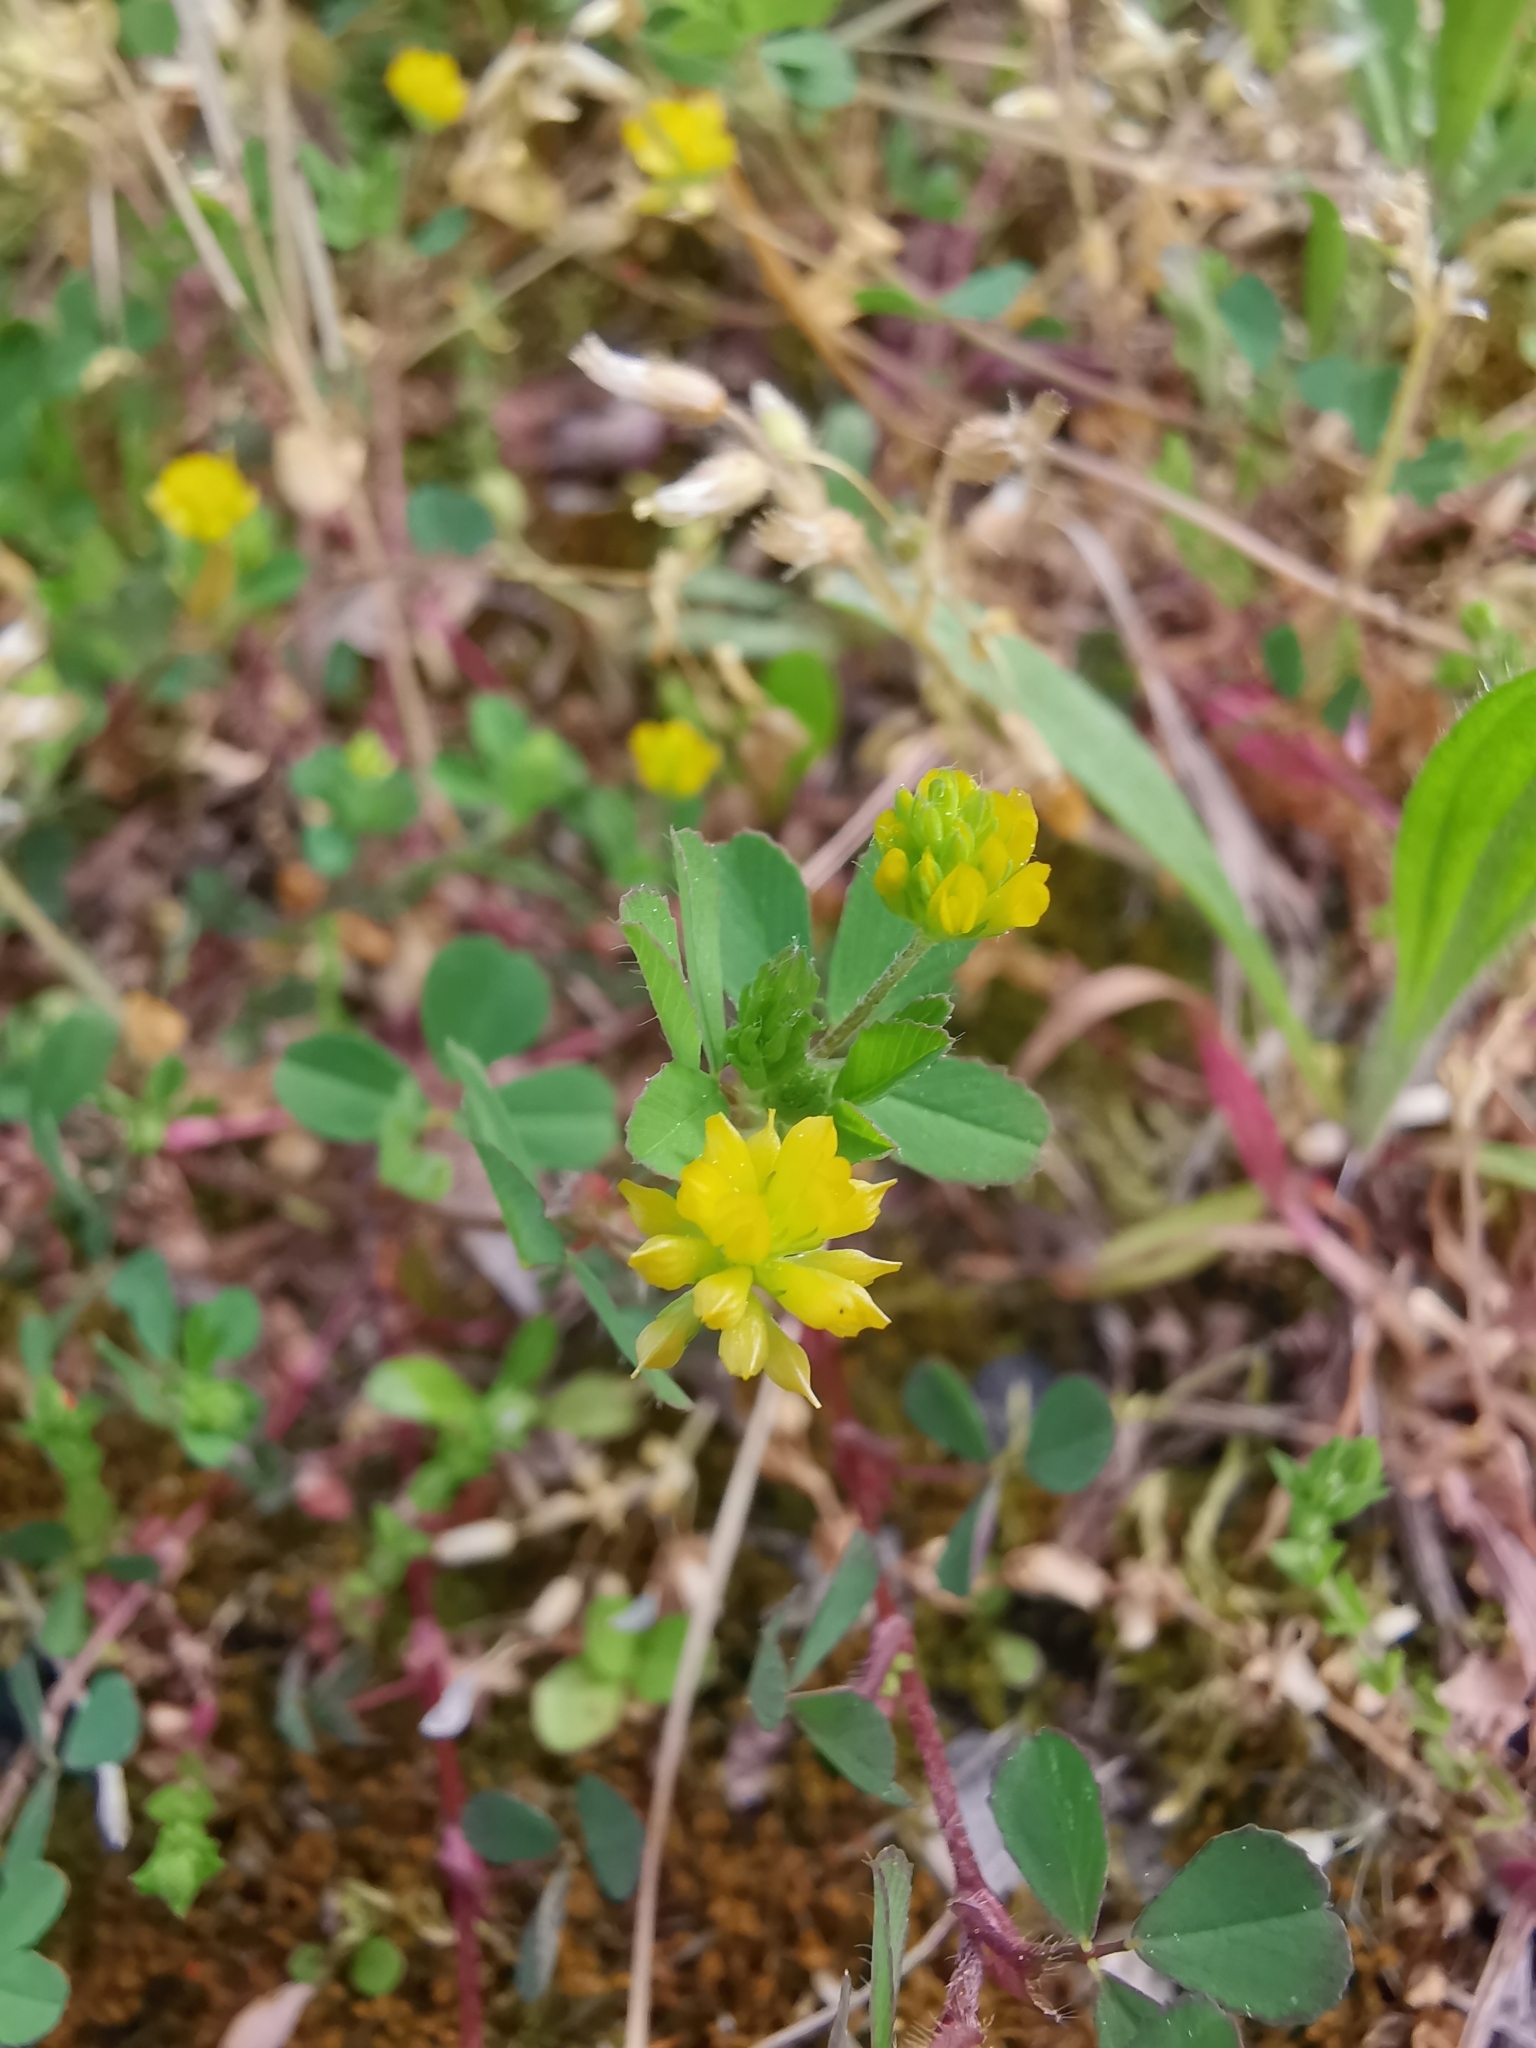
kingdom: Plantae
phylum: Tracheophyta
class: Magnoliopsida
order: Fabales
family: Fabaceae
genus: Trifolium
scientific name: Trifolium dubium
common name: Suckling clover
